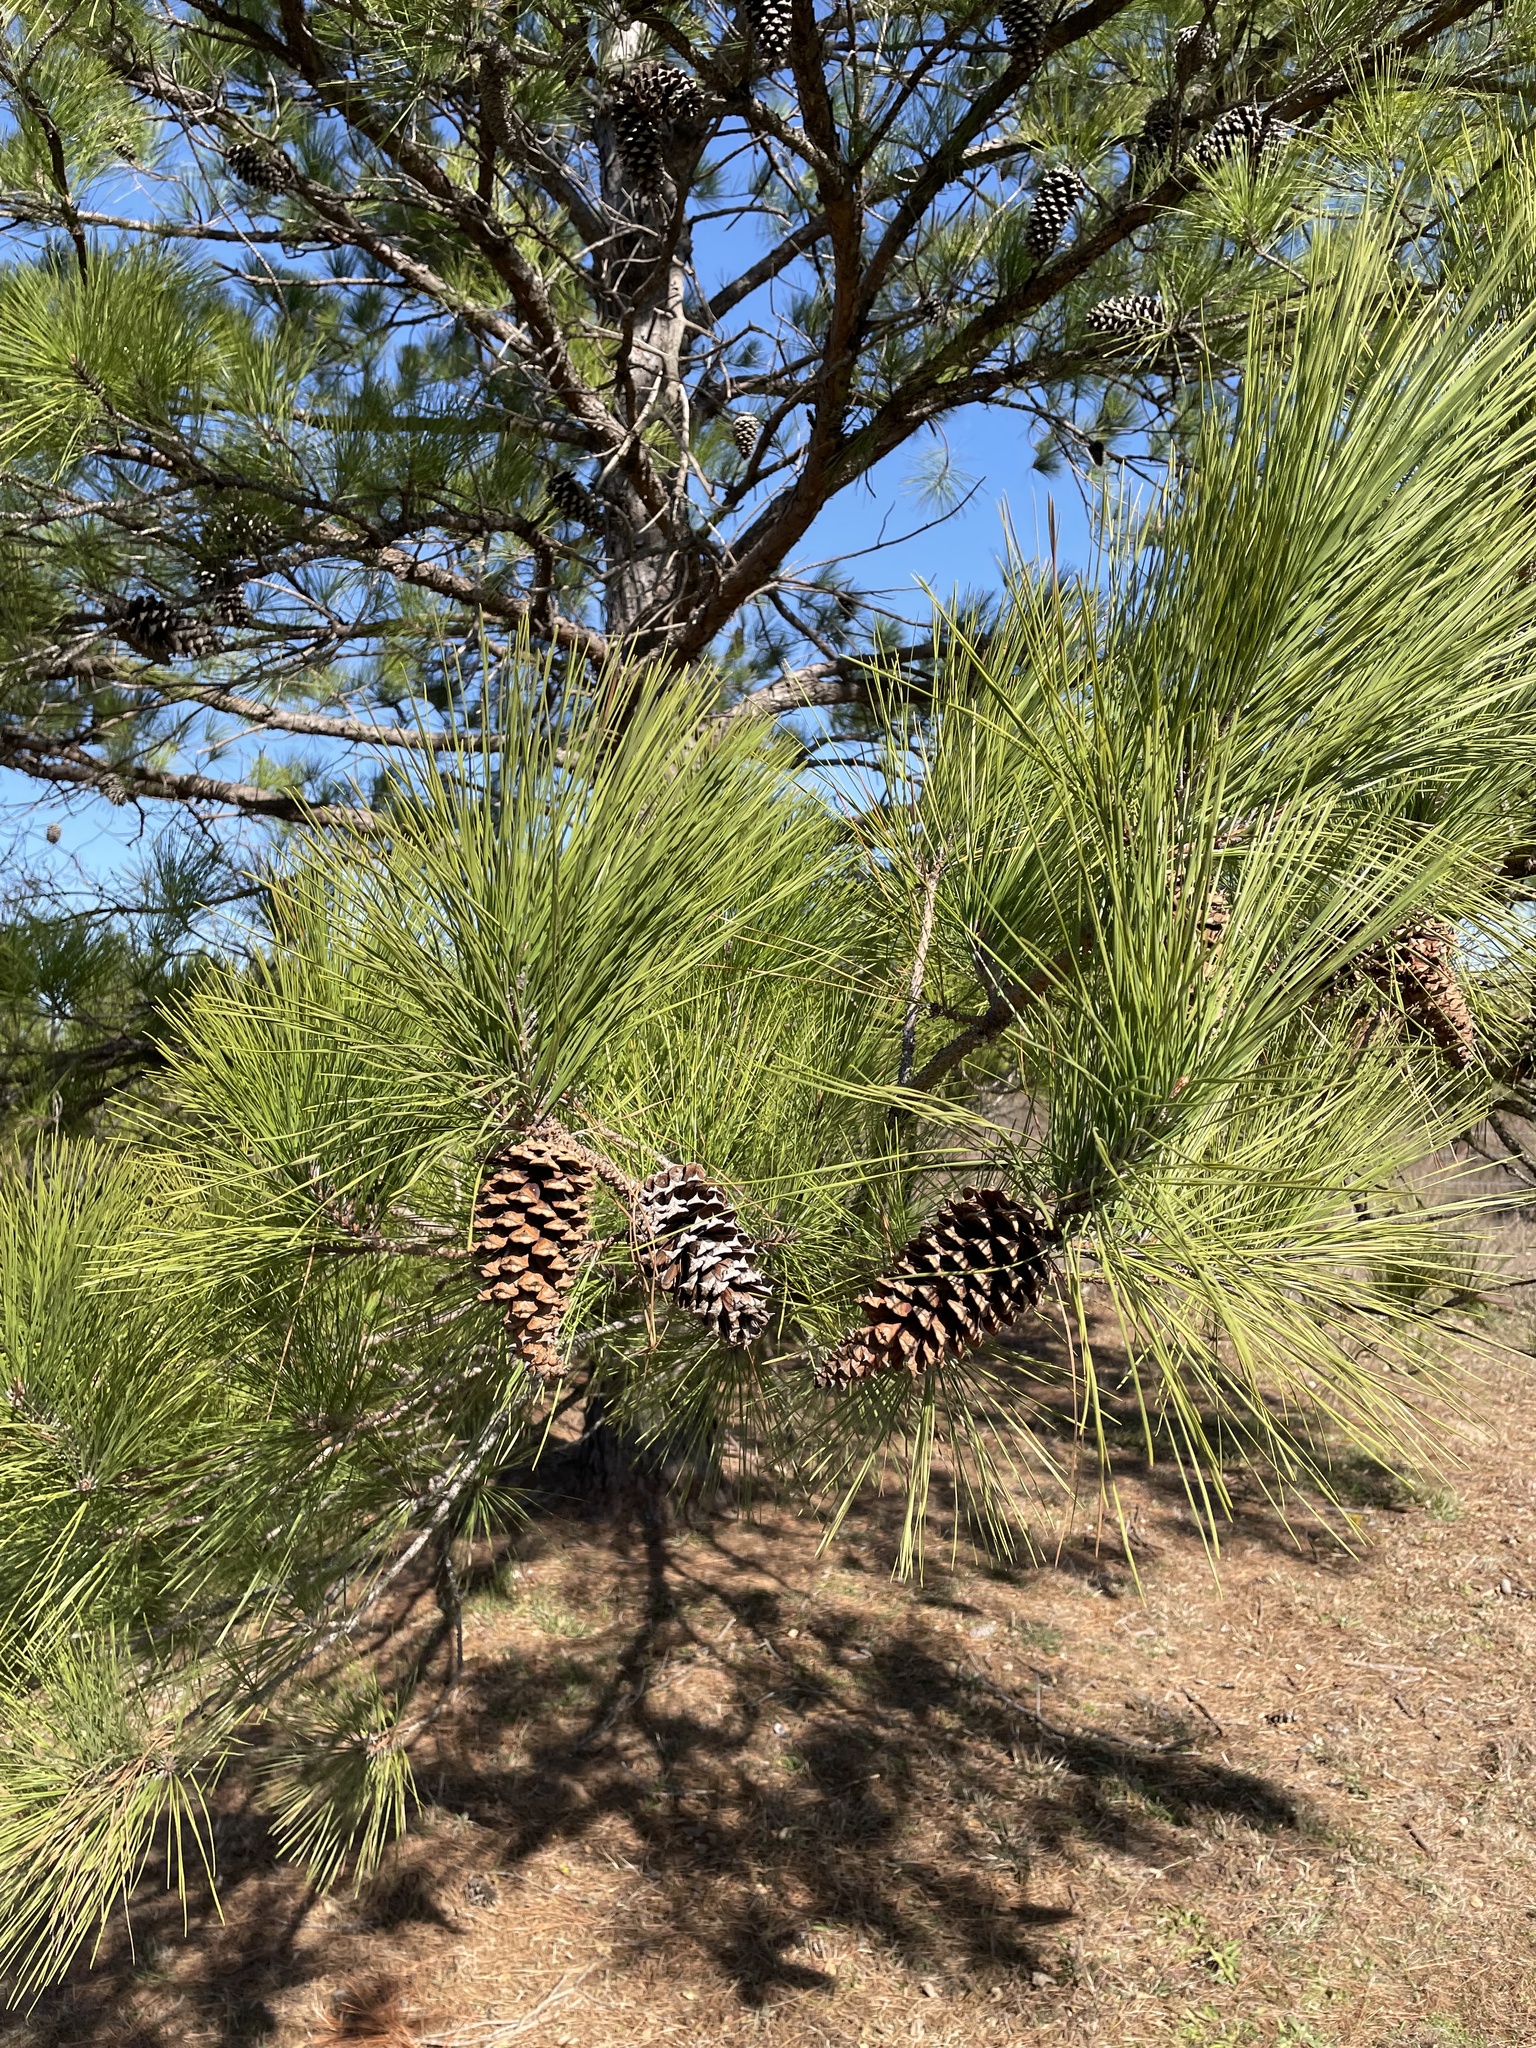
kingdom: Plantae
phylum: Tracheophyta
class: Pinopsida
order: Pinales
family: Pinaceae
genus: Pinus
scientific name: Pinus taeda
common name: Loblolly pine
